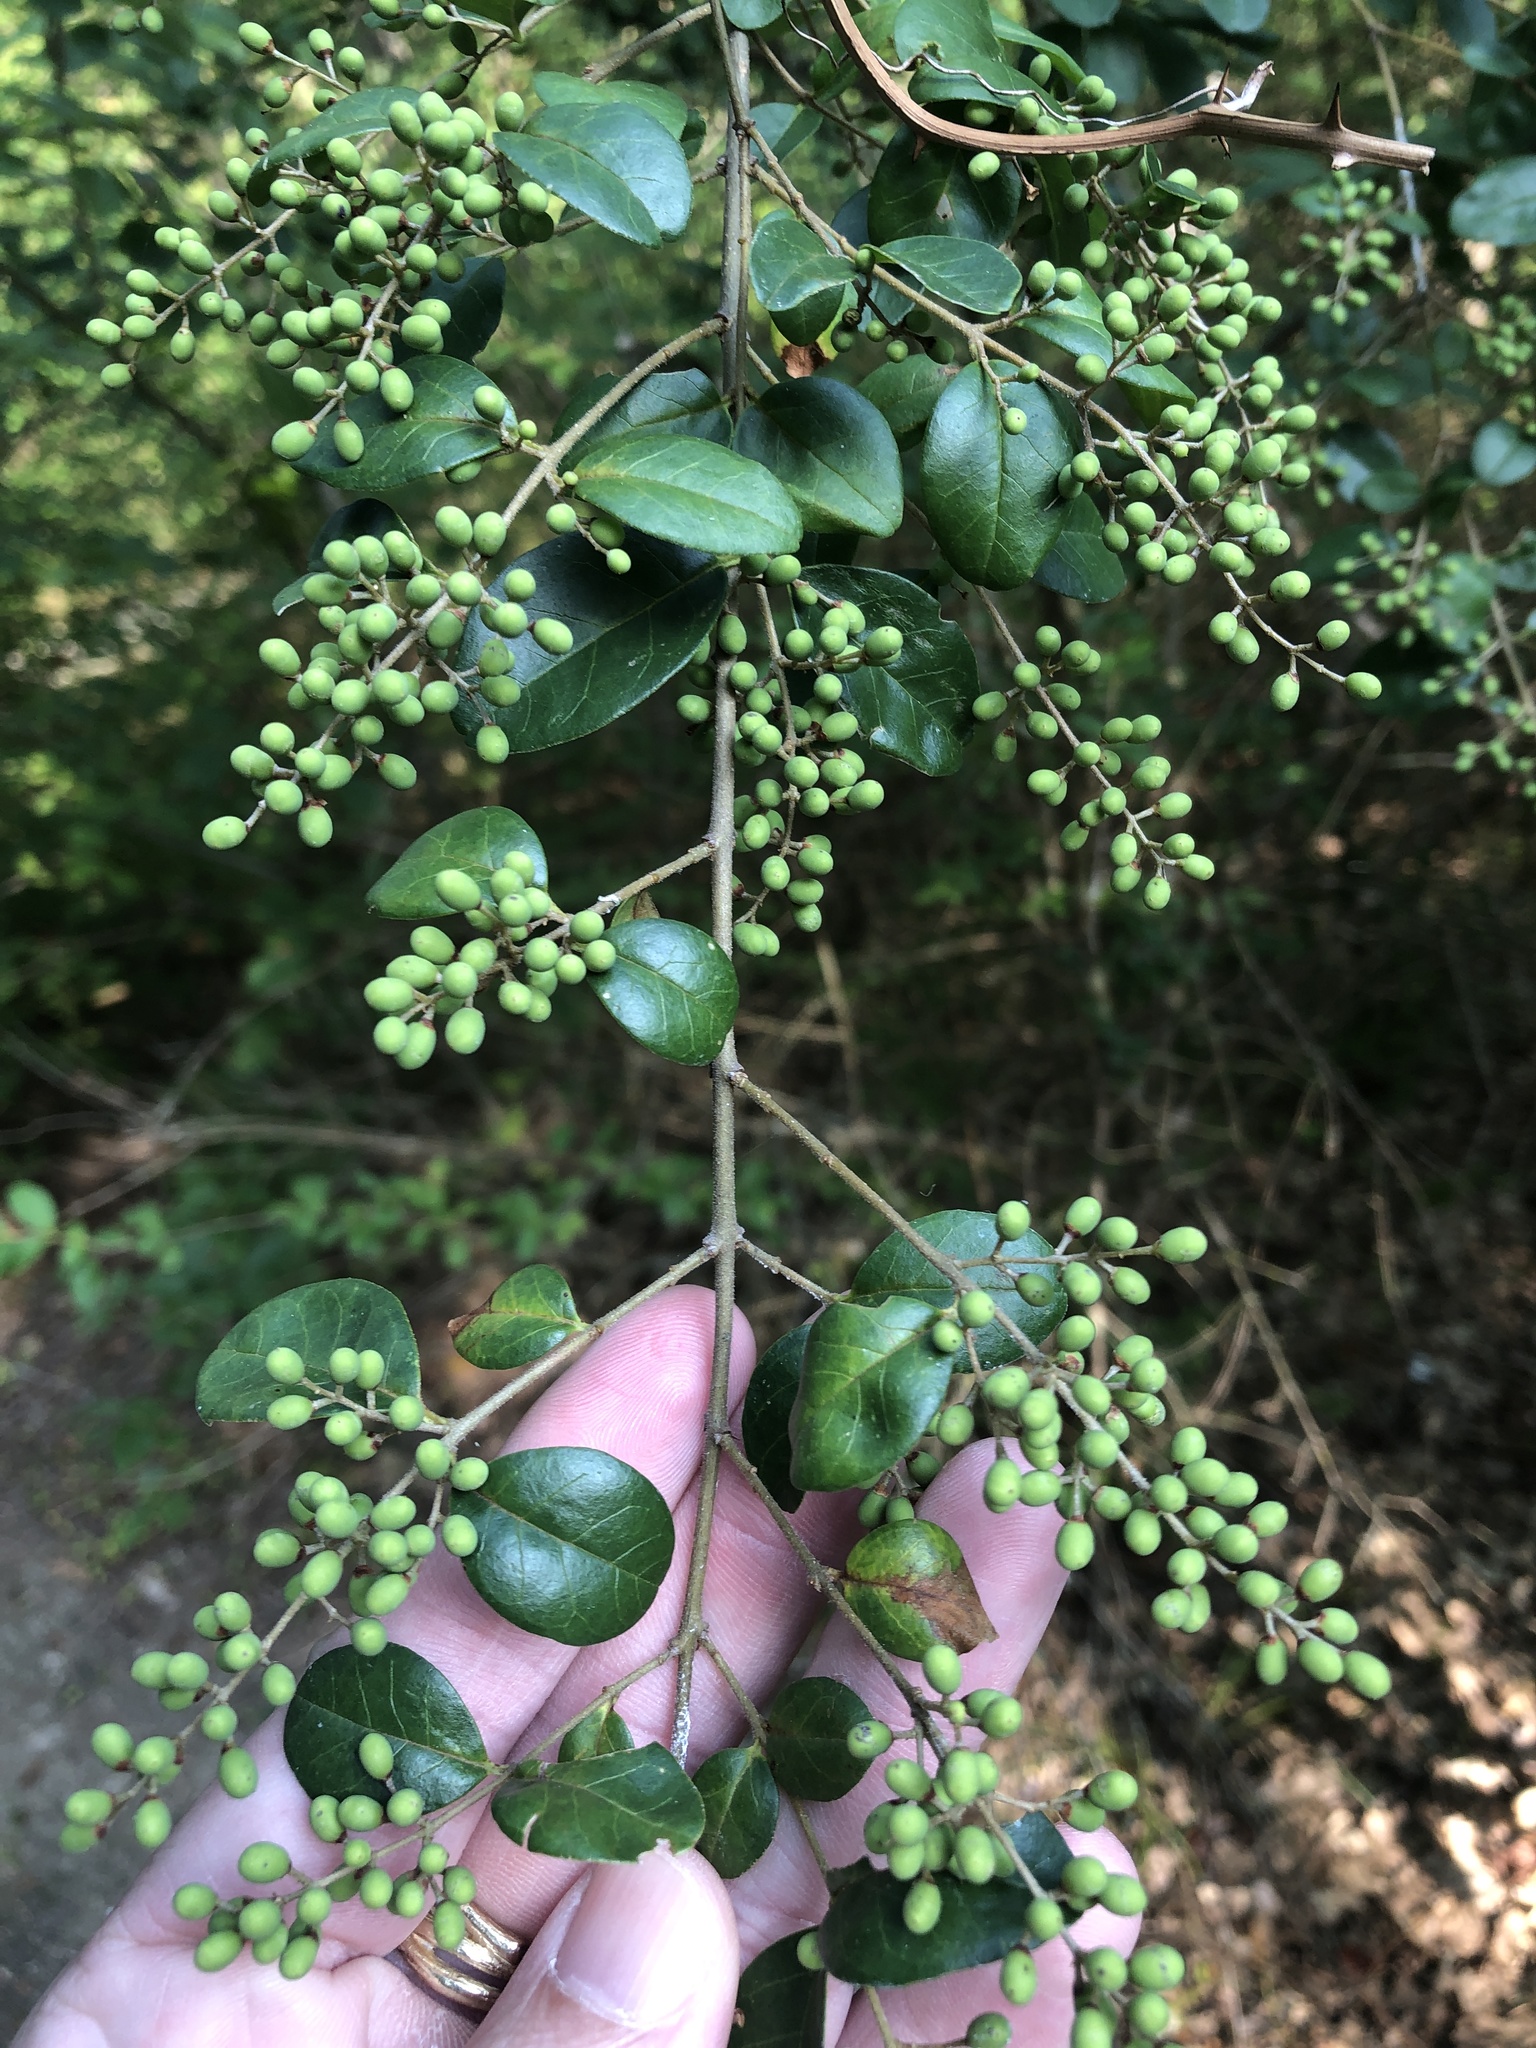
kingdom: Plantae
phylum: Tracheophyta
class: Magnoliopsida
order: Lamiales
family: Oleaceae
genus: Ligustrum
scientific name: Ligustrum sinense
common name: Chinese privet
